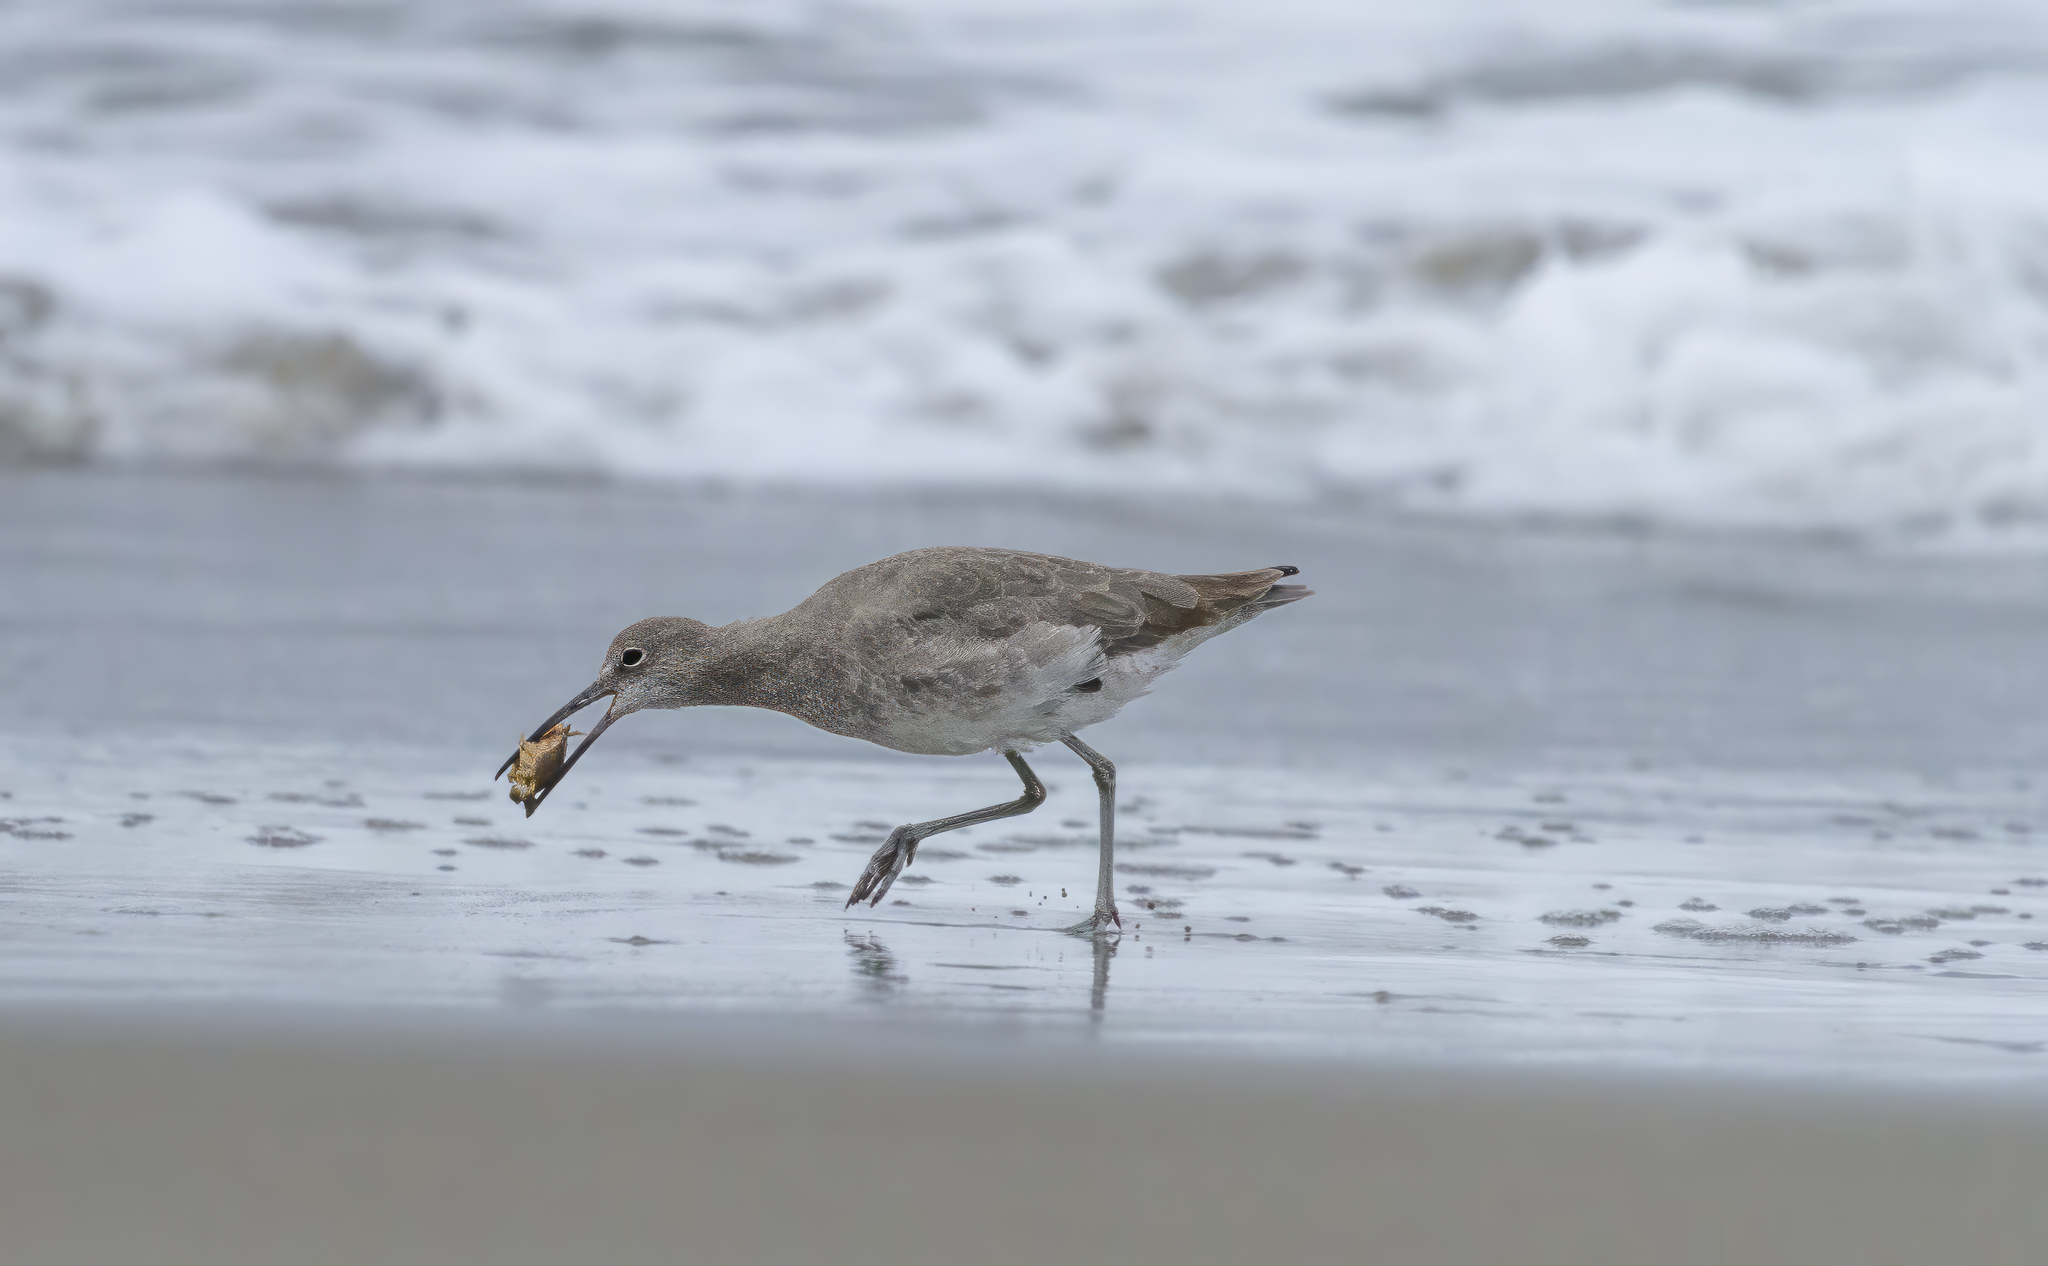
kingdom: Animalia
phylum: Chordata
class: Aves
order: Charadriiformes
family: Scolopacidae
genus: Tringa
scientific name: Tringa semipalmata
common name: Willet
